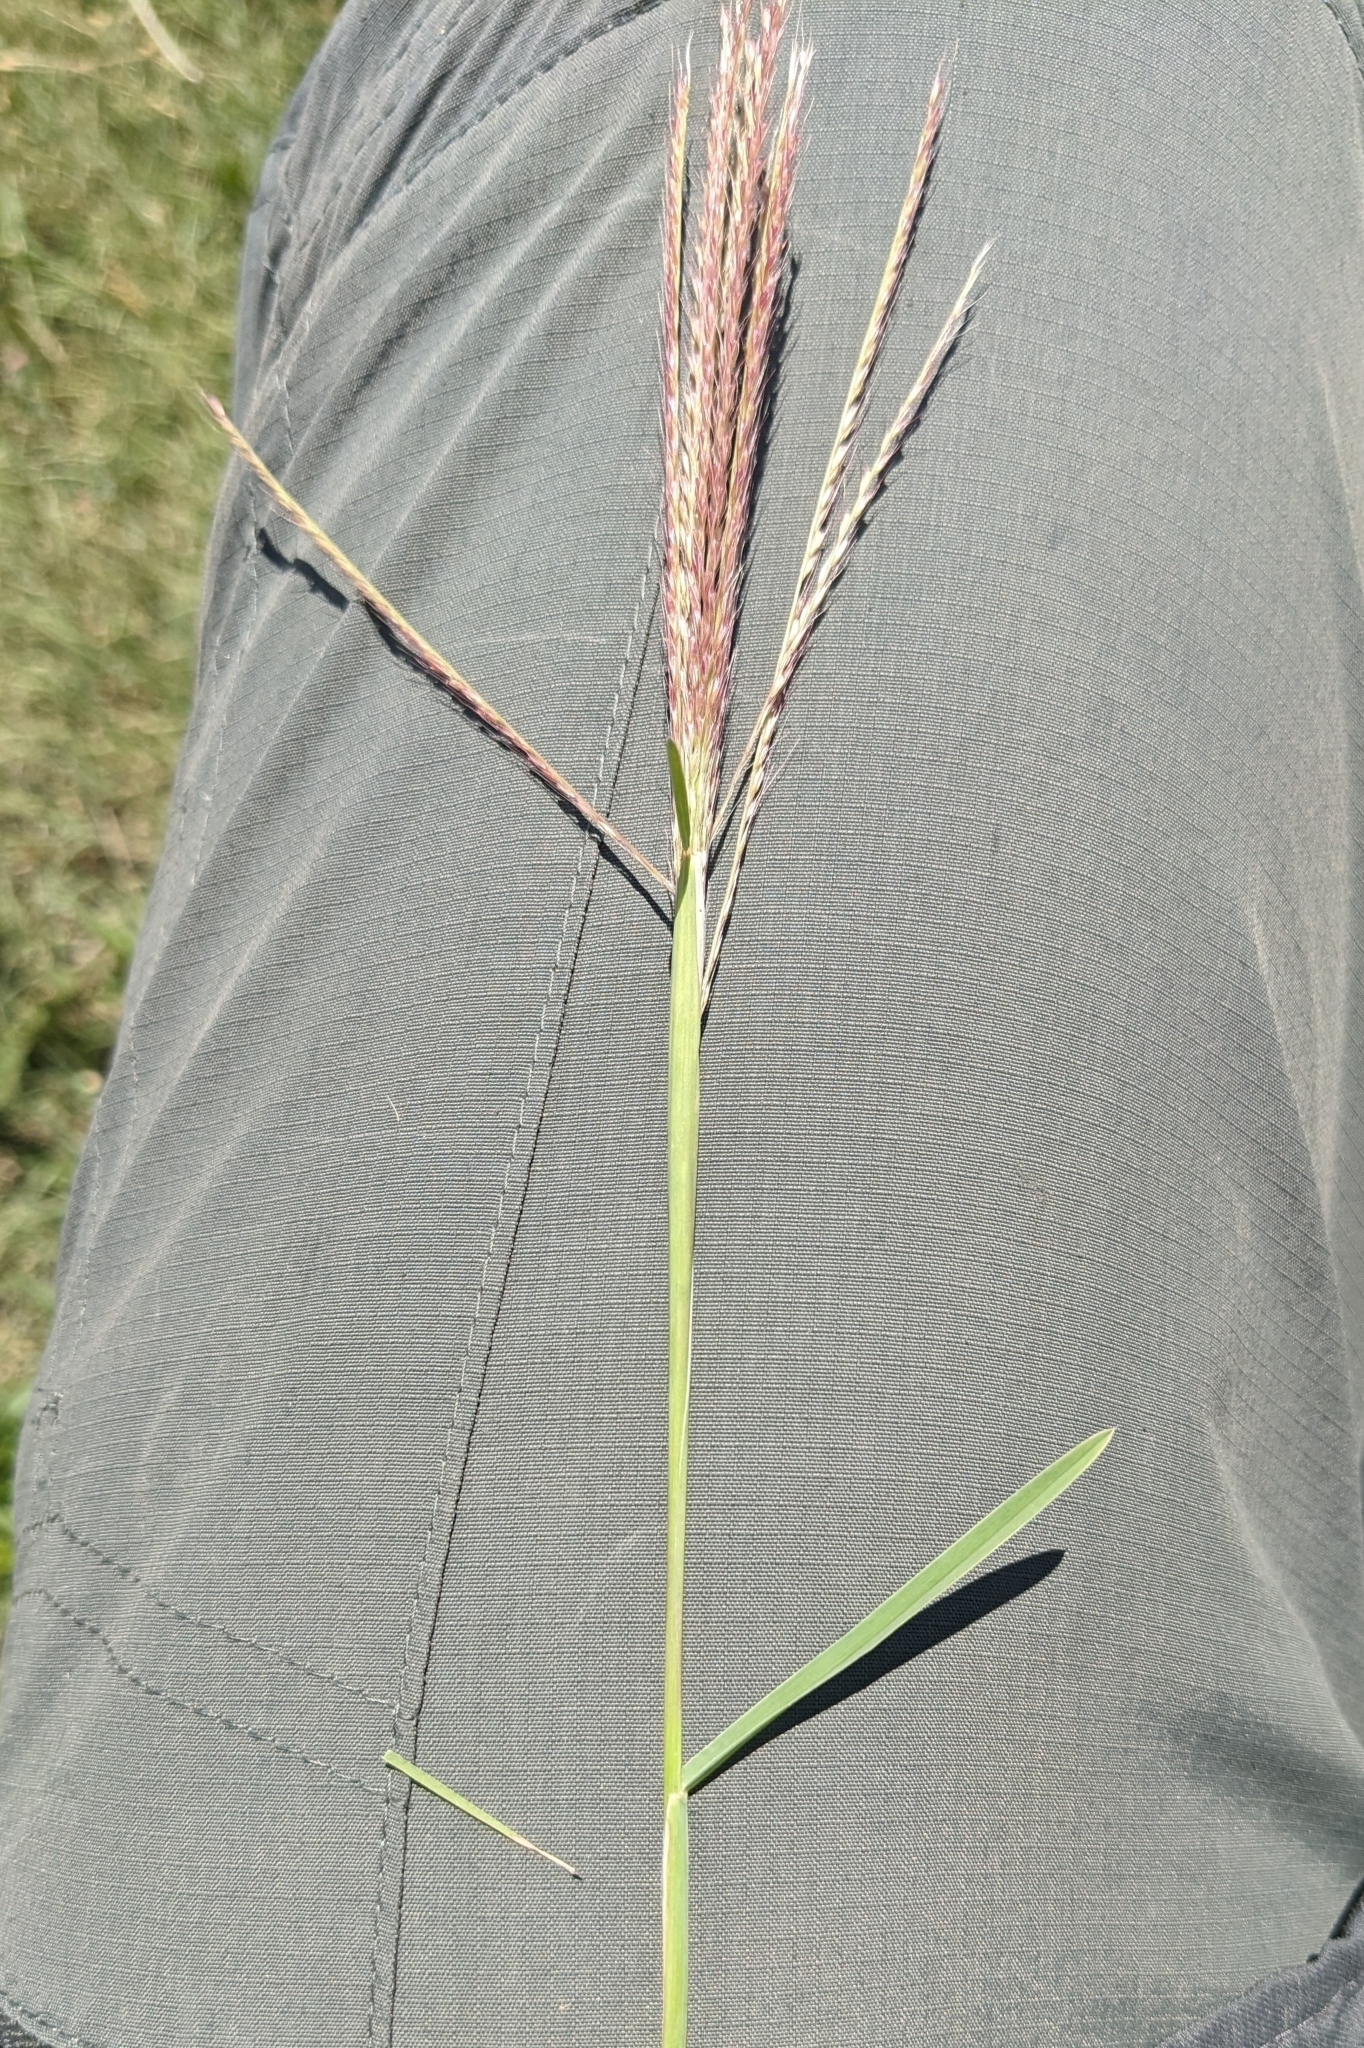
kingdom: Plantae
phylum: Tracheophyta
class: Liliopsida
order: Poales
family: Poaceae
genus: Chloris
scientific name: Chloris verticillata
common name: Tumble windmill grass
